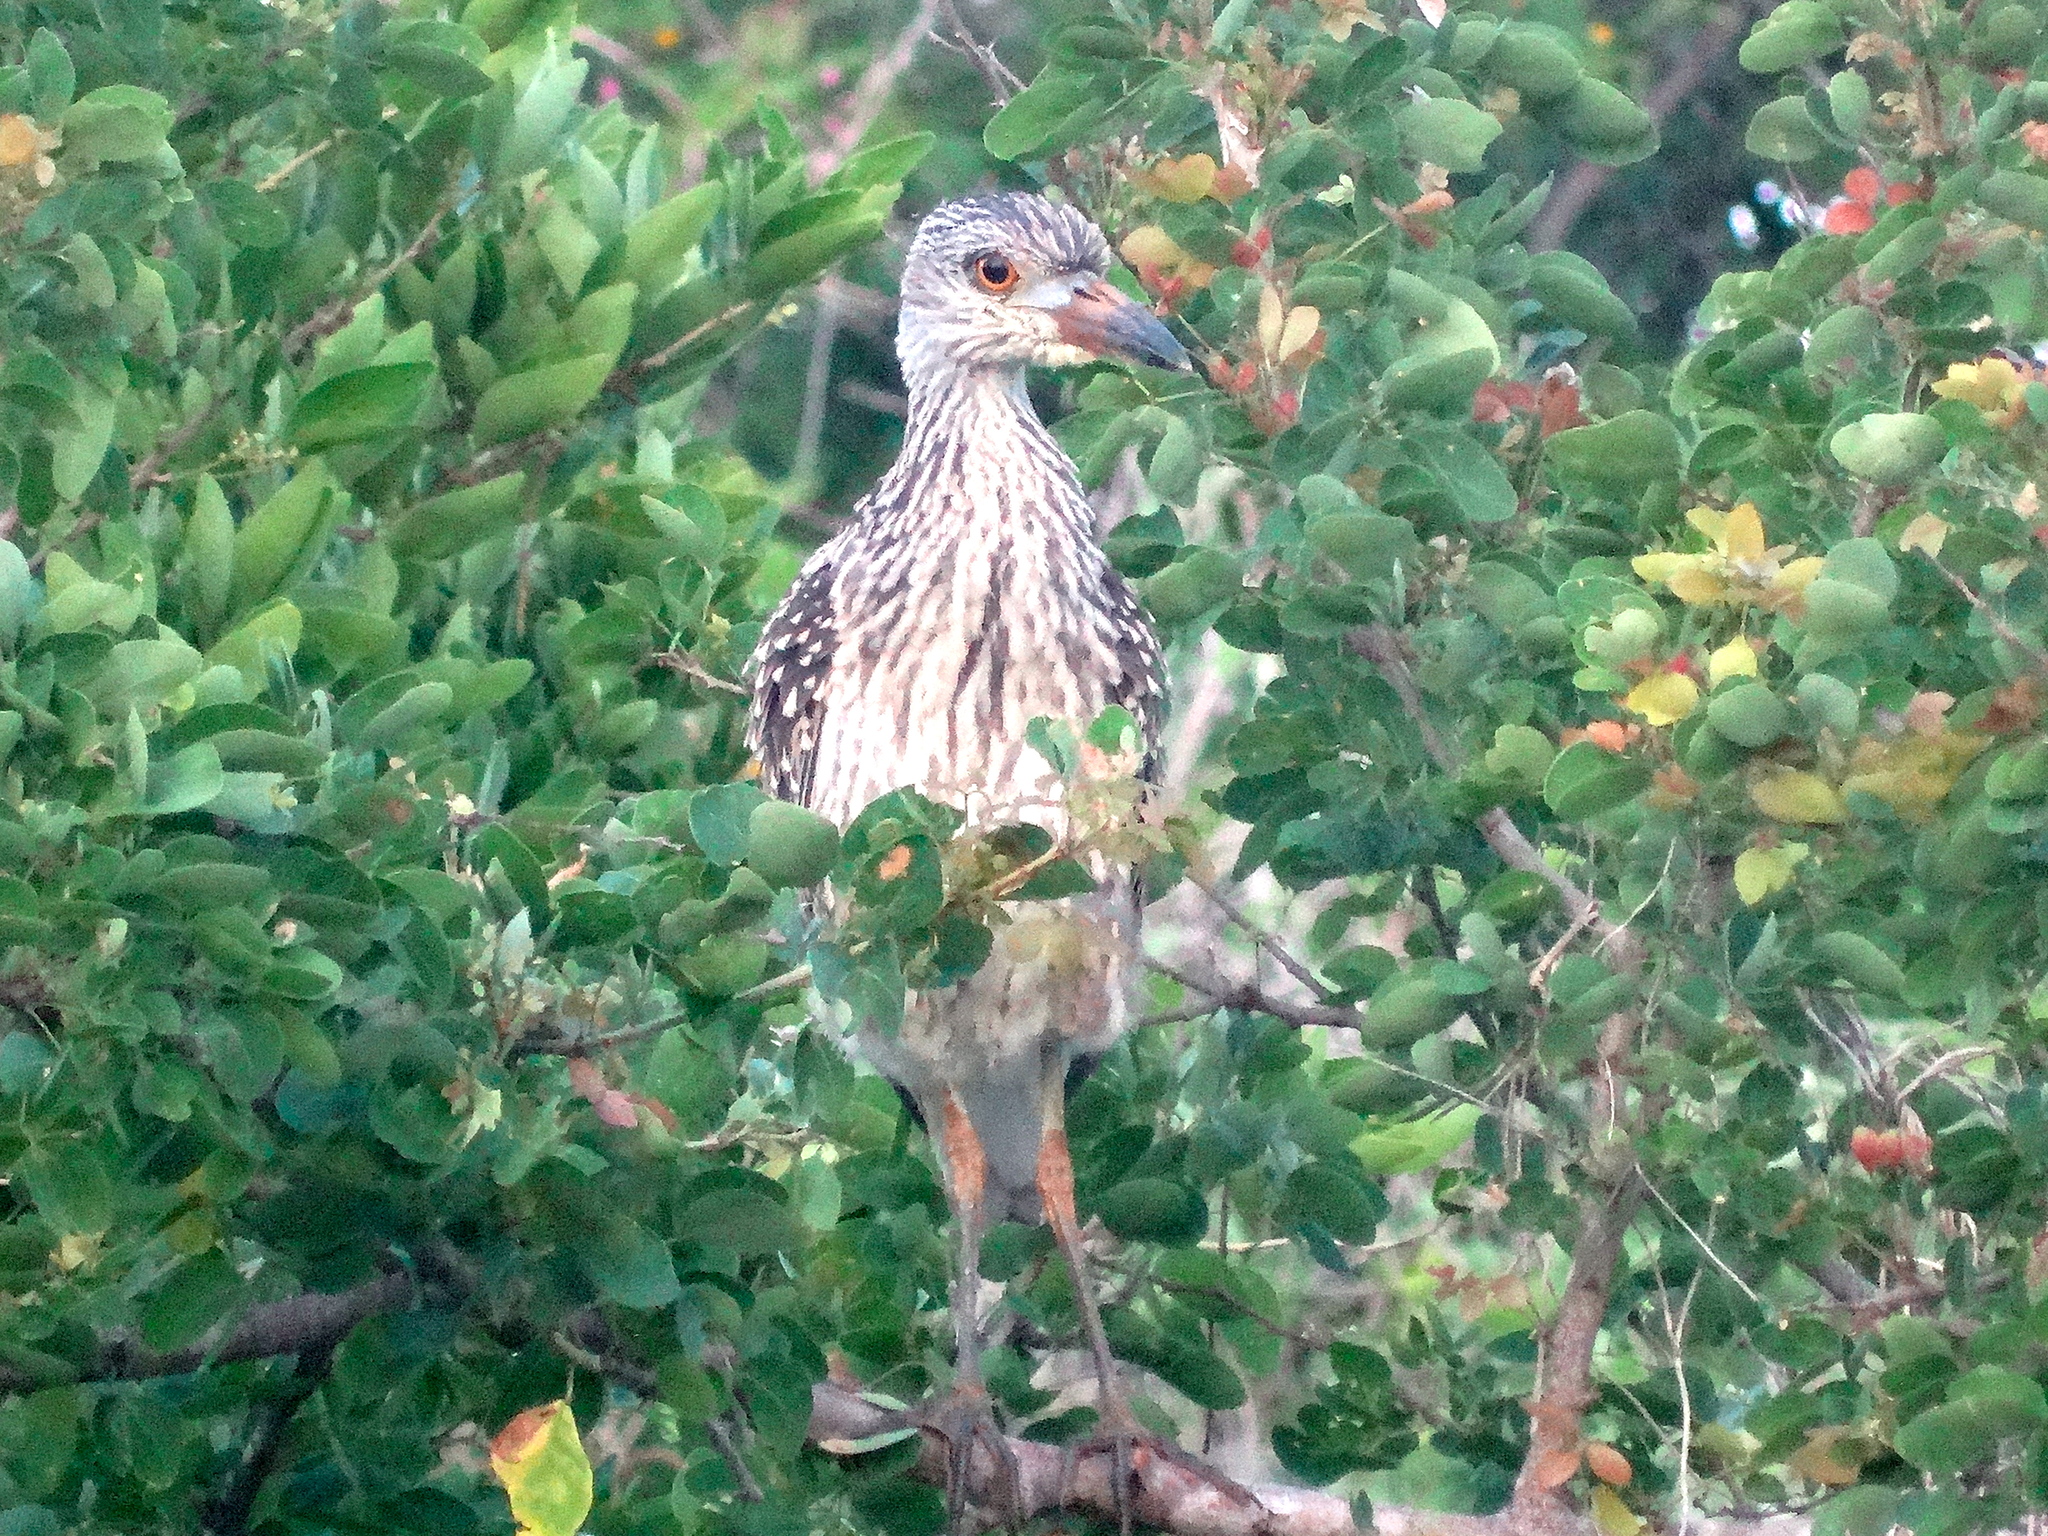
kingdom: Animalia
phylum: Chordata
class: Aves
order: Pelecaniformes
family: Ardeidae
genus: Nycticorax
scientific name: Nycticorax nycticorax
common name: Black-crowned night heron
